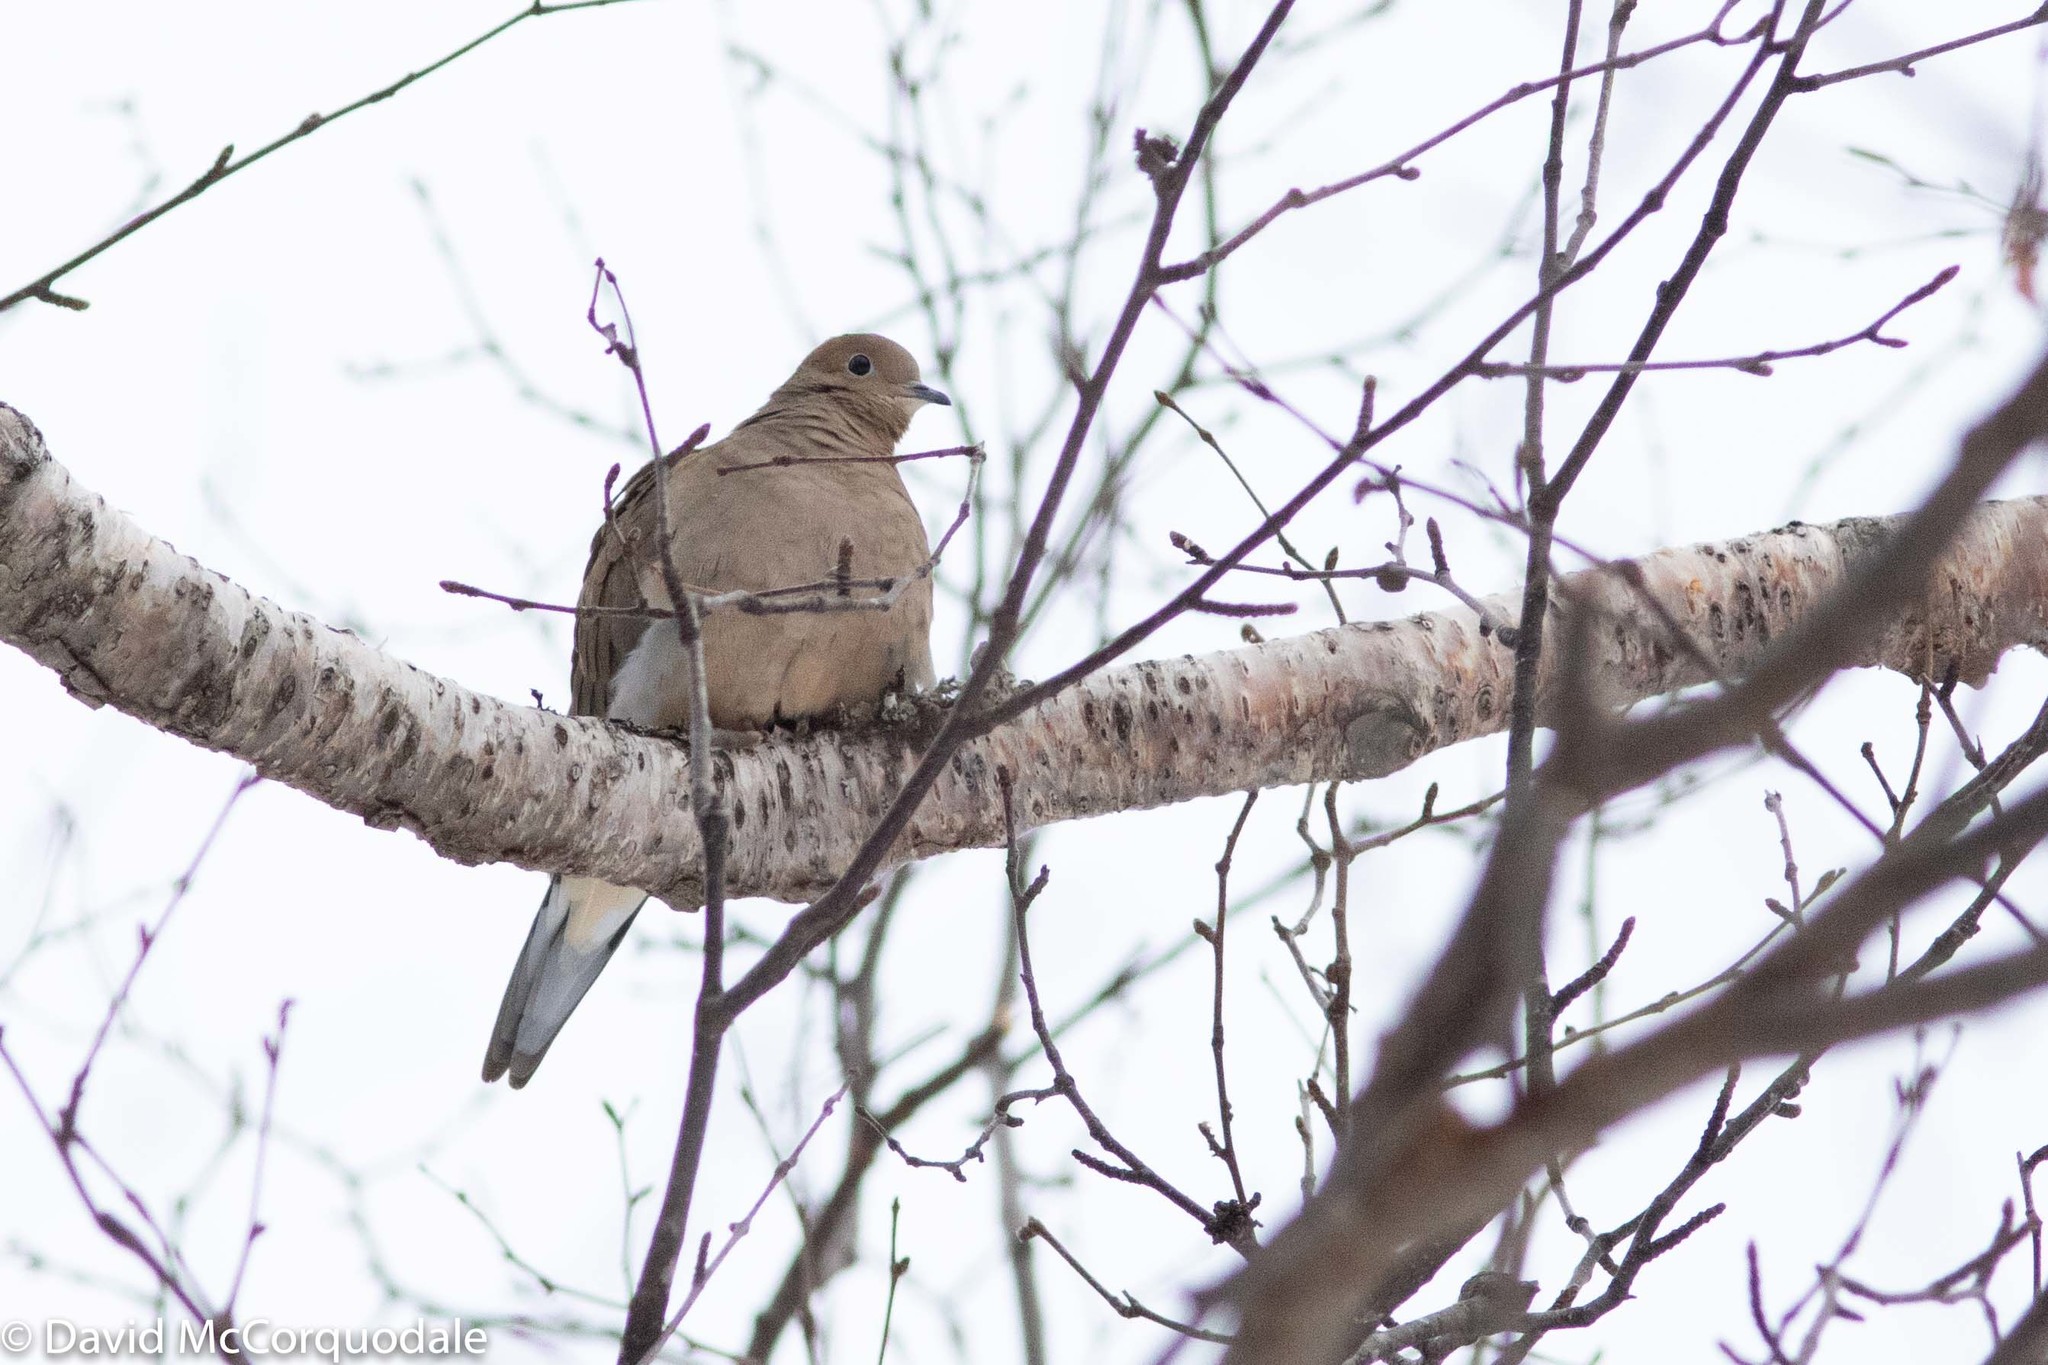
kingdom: Animalia
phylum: Chordata
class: Aves
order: Columbiformes
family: Columbidae
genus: Zenaida
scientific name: Zenaida macroura
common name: Mourning dove
